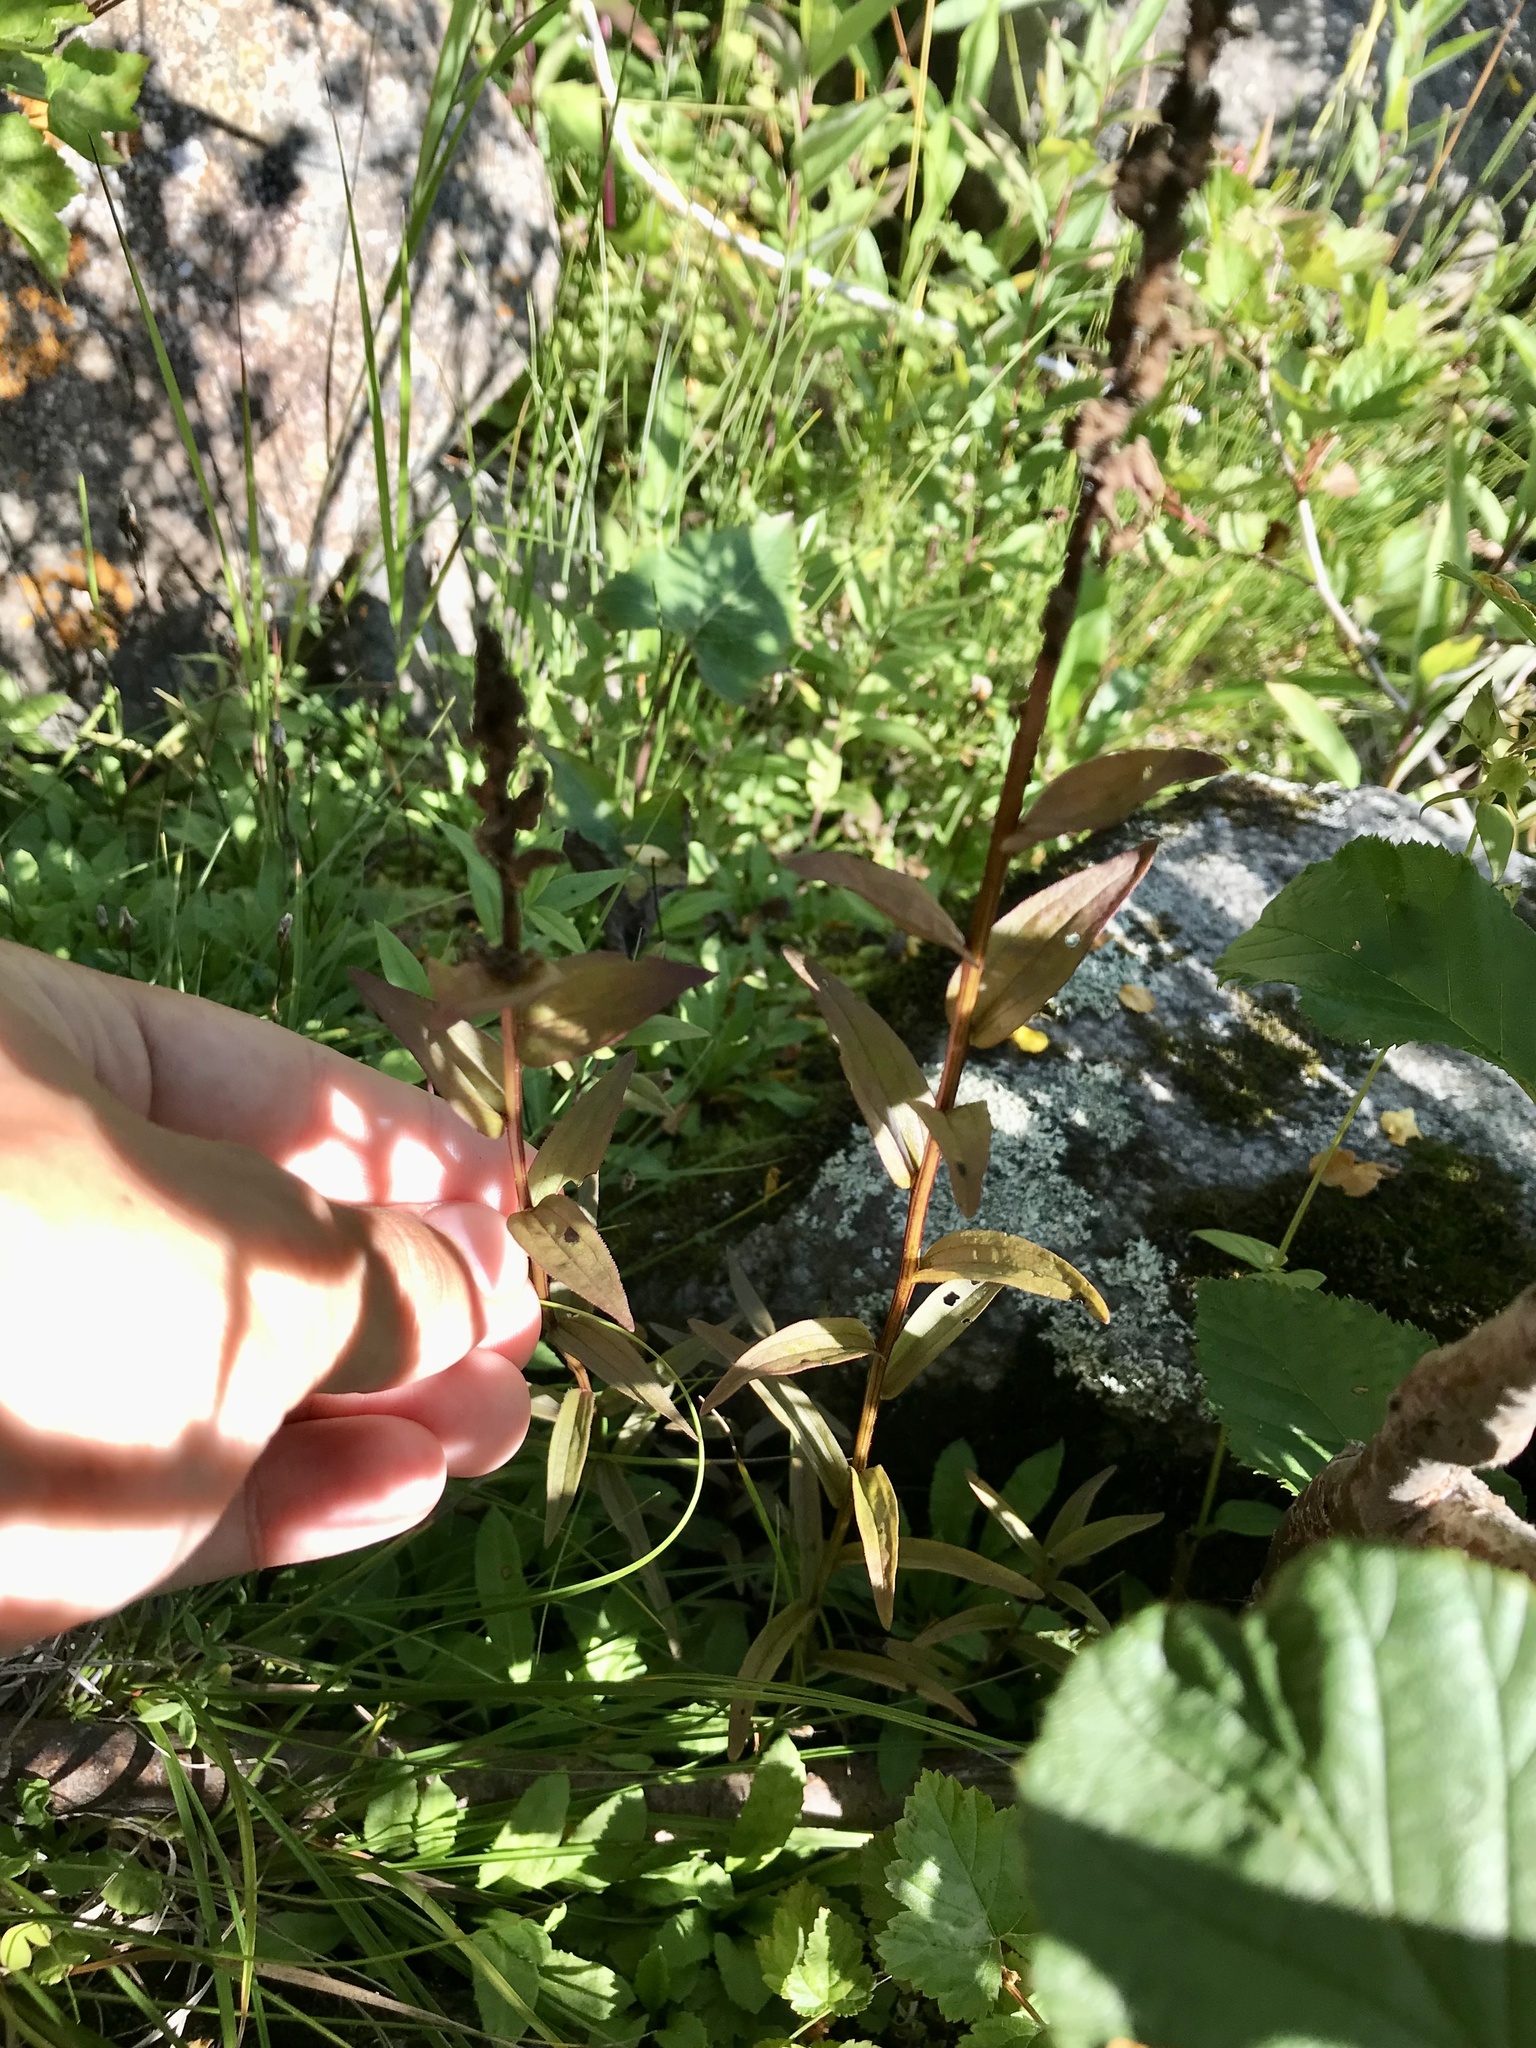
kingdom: Plantae
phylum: Tracheophyta
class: Magnoliopsida
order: Lamiales
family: Orobanchaceae
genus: Castilleja
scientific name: Castilleja septentrionalis
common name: Northeastern paintbrush
